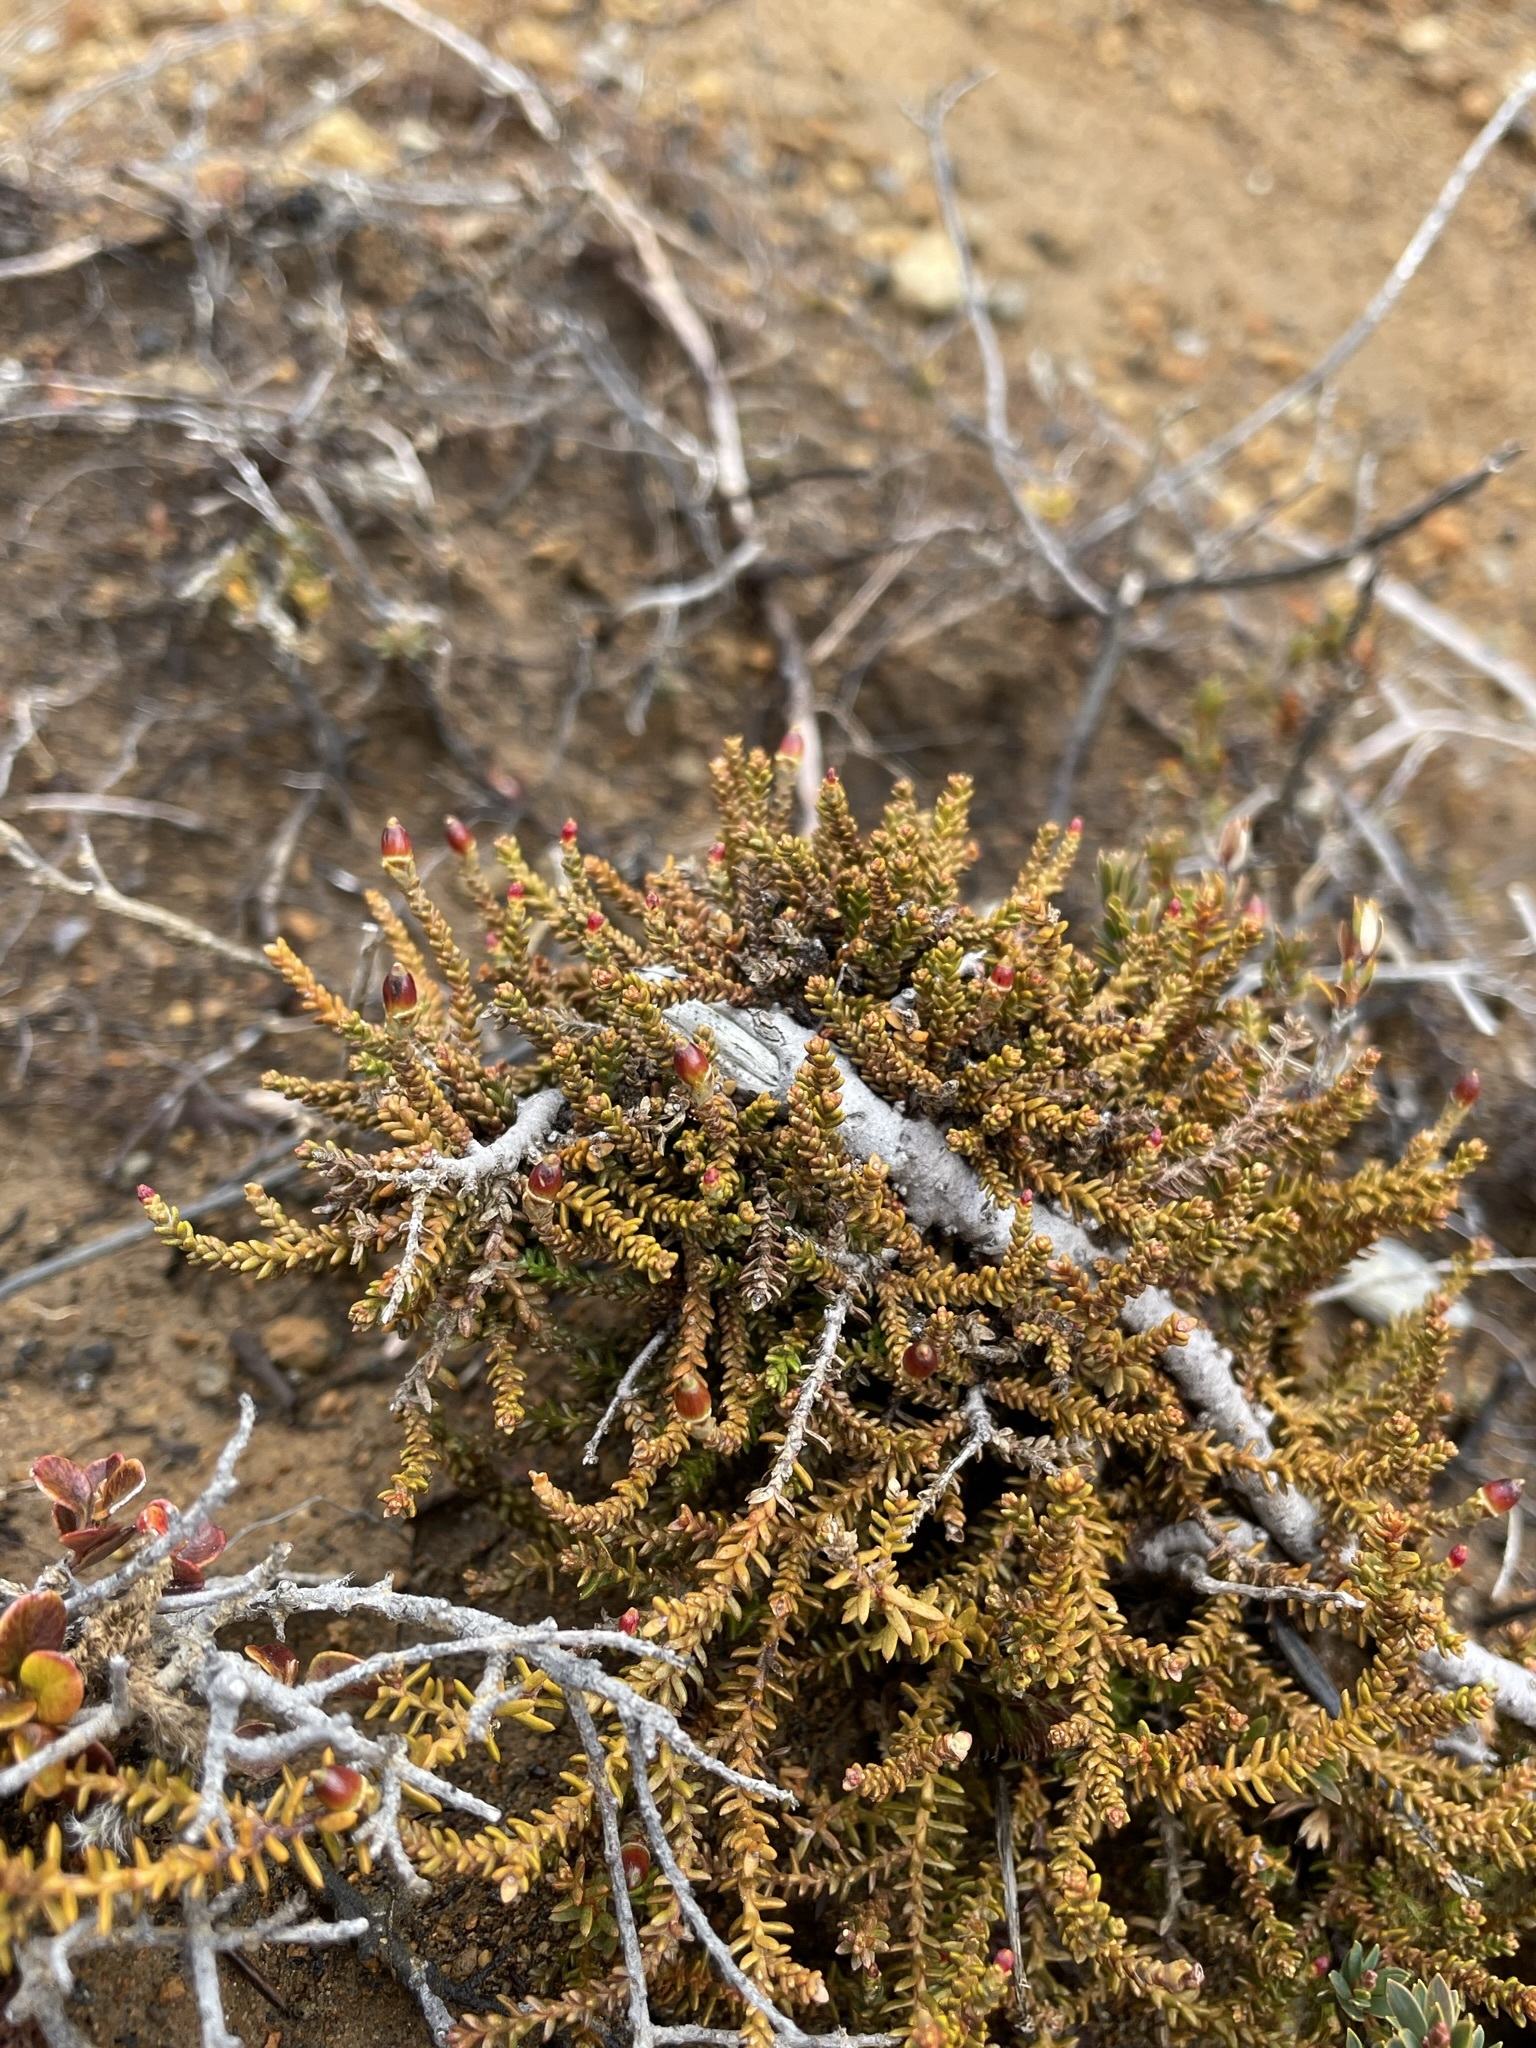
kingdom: Plantae
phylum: Tracheophyta
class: Pinopsida
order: Pinales
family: Podocarpaceae
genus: Lepidothamnus
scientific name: Lepidothamnus laxifolius
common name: Pygmy pine
